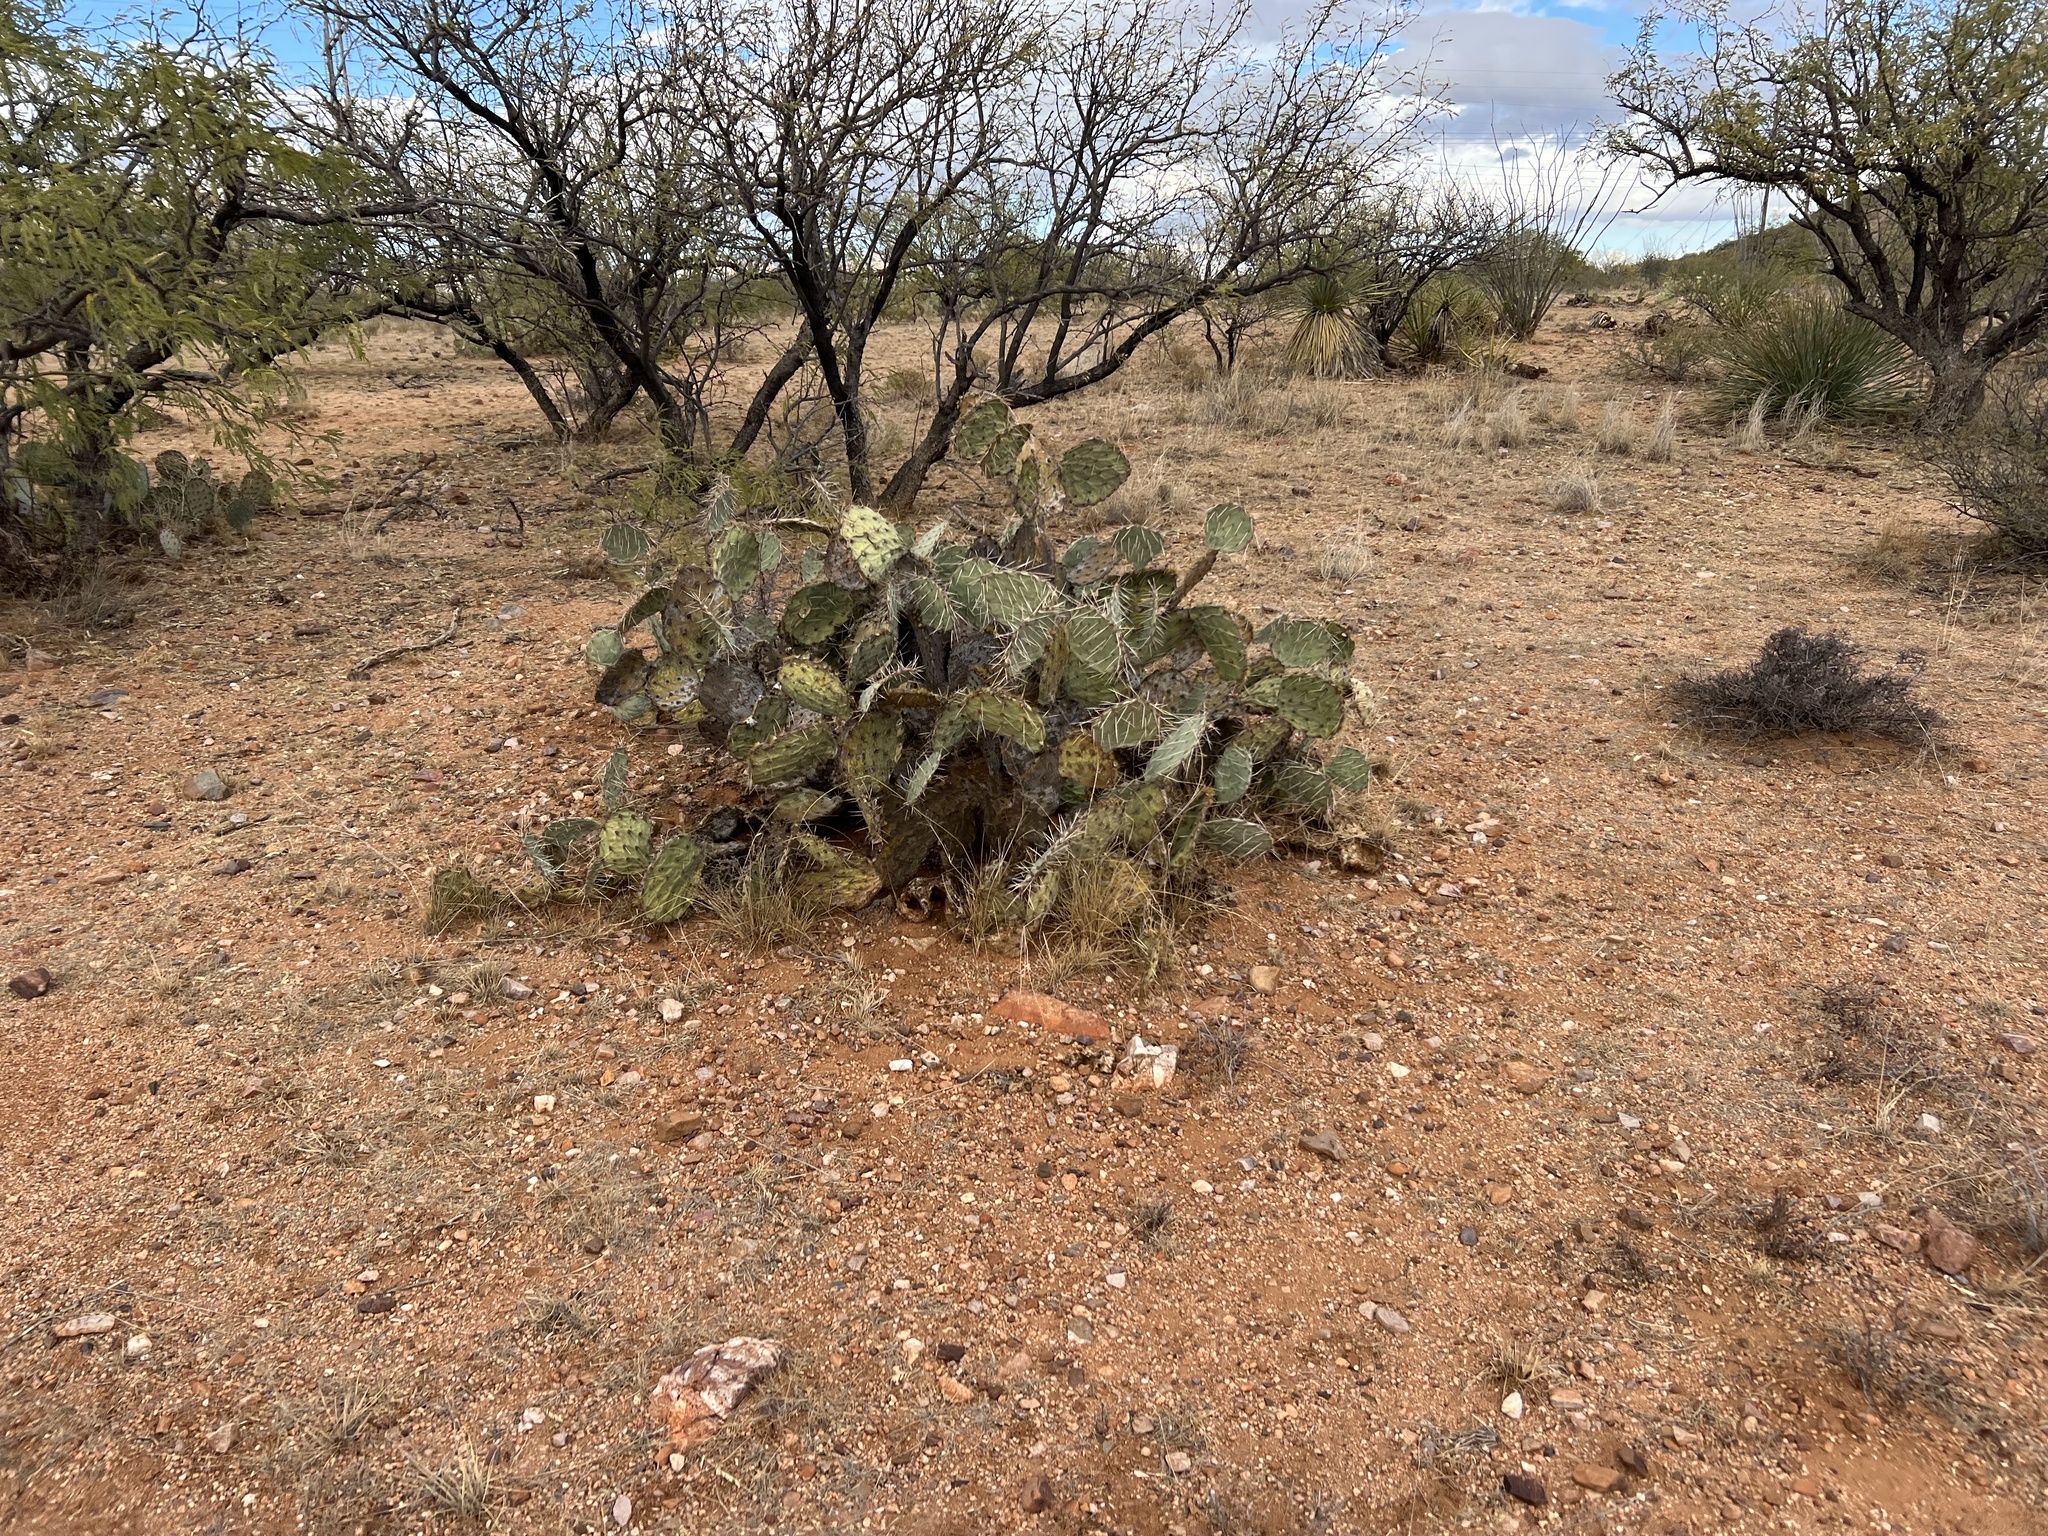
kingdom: Plantae
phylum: Tracheophyta
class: Magnoliopsida
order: Caryophyllales
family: Cactaceae
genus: Opuntia
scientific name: Opuntia phaeacantha
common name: New mexico prickly-pear
